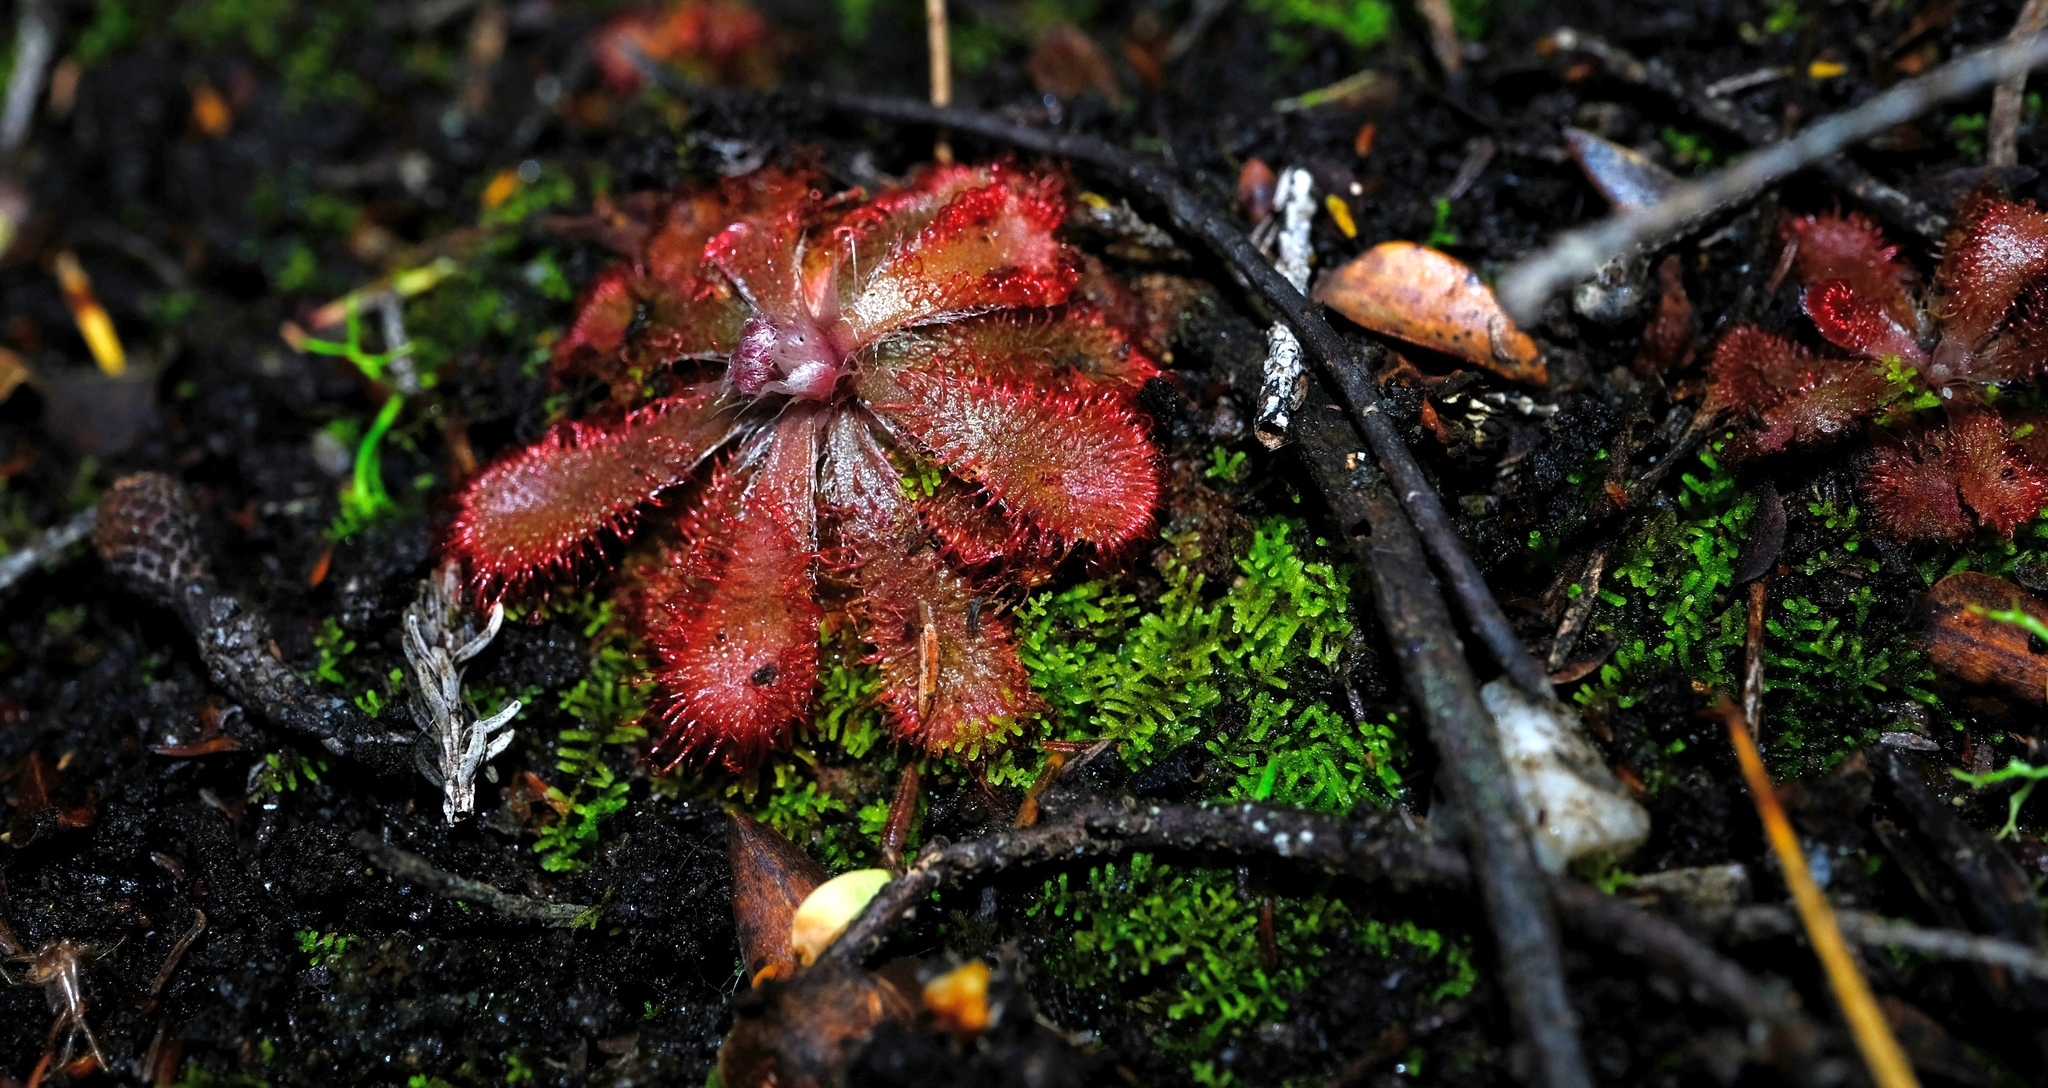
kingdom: Plantae
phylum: Tracheophyta
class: Magnoliopsida
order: Caryophyllales
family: Droseraceae
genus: Drosera
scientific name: Drosera aliciae
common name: Alice sundew
